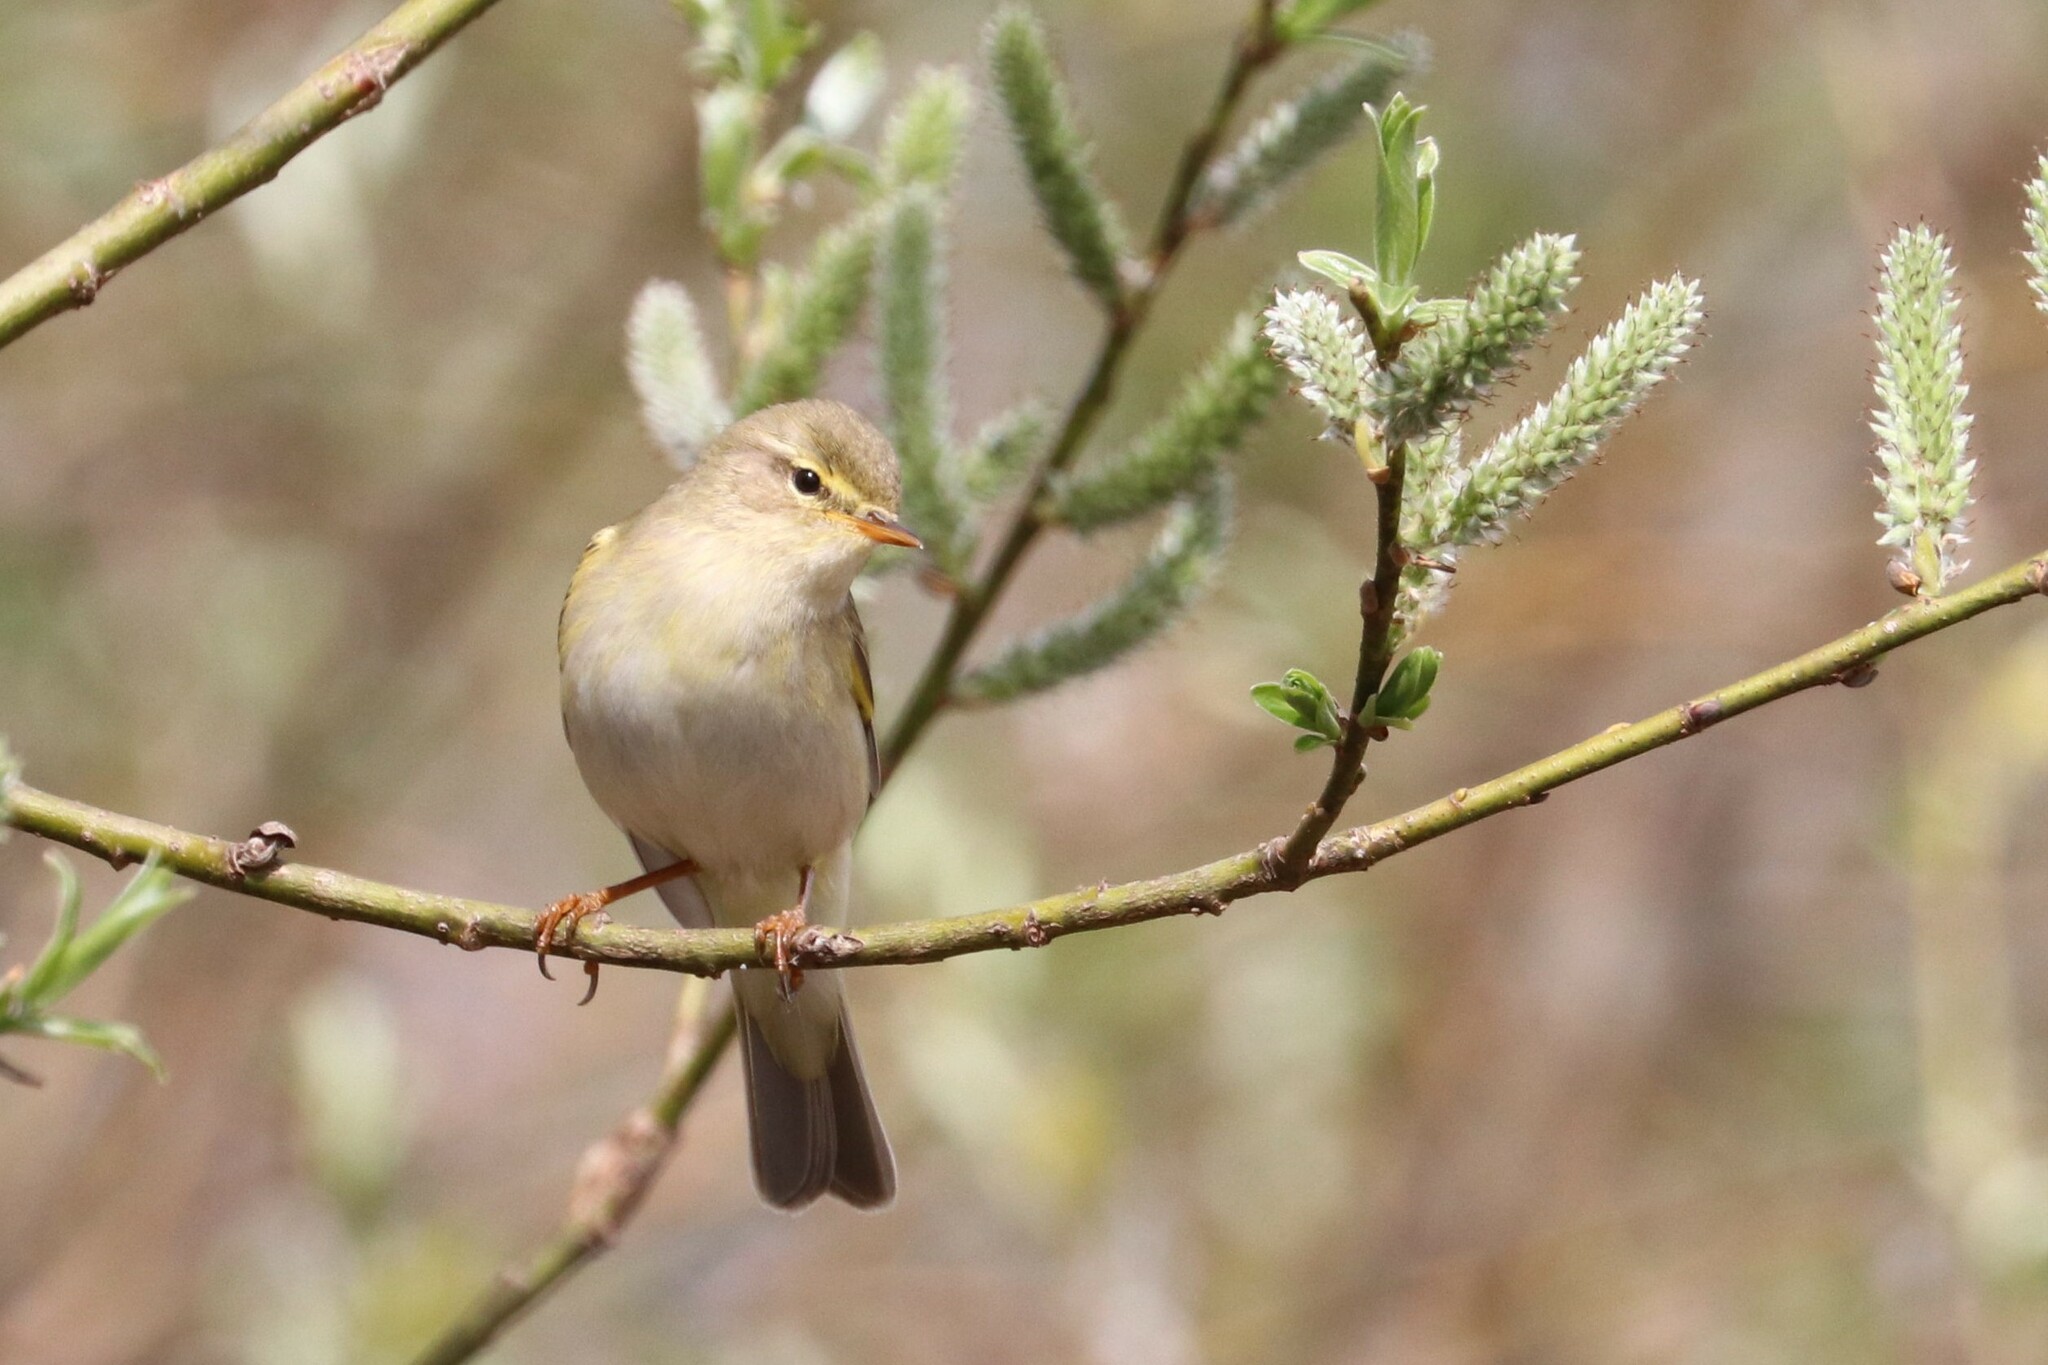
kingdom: Animalia
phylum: Chordata
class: Aves
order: Passeriformes
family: Phylloscopidae
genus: Phylloscopus
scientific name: Phylloscopus trochilus
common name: Willow warbler
